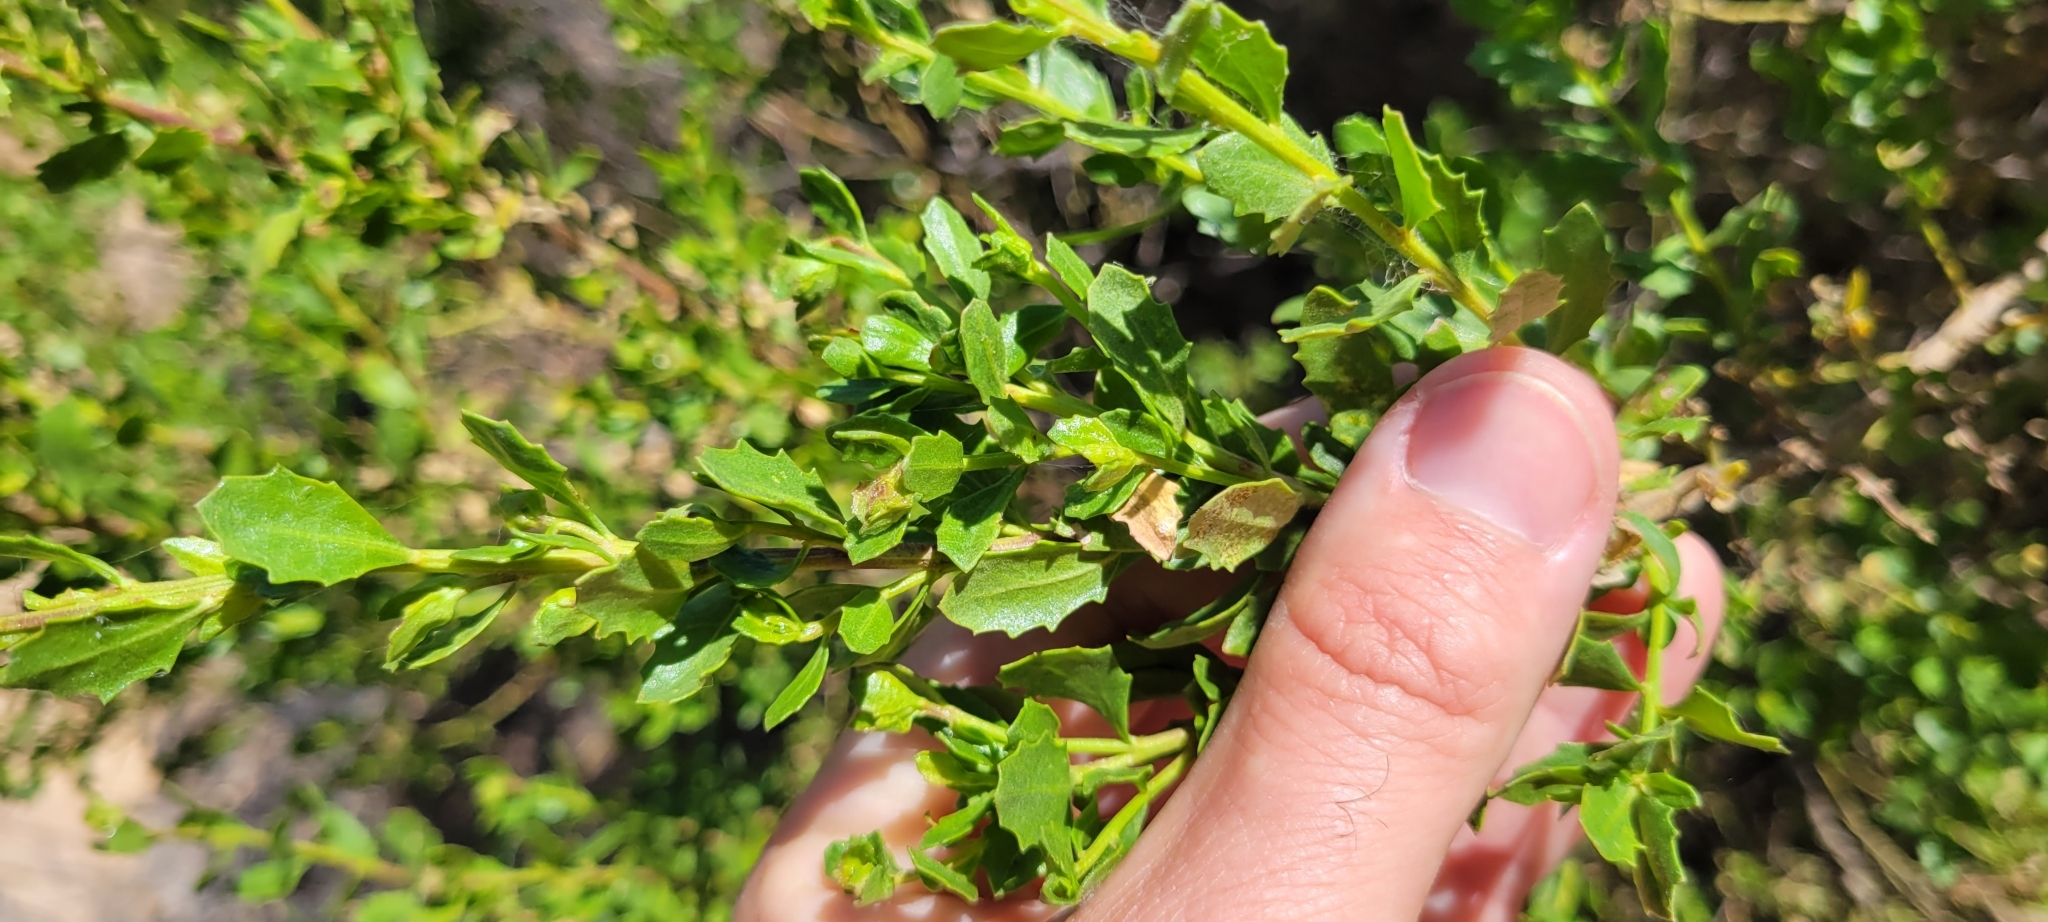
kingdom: Plantae
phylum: Tracheophyta
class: Magnoliopsida
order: Asterales
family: Asteraceae
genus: Baccharis
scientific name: Baccharis pilularis
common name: Coyotebrush
